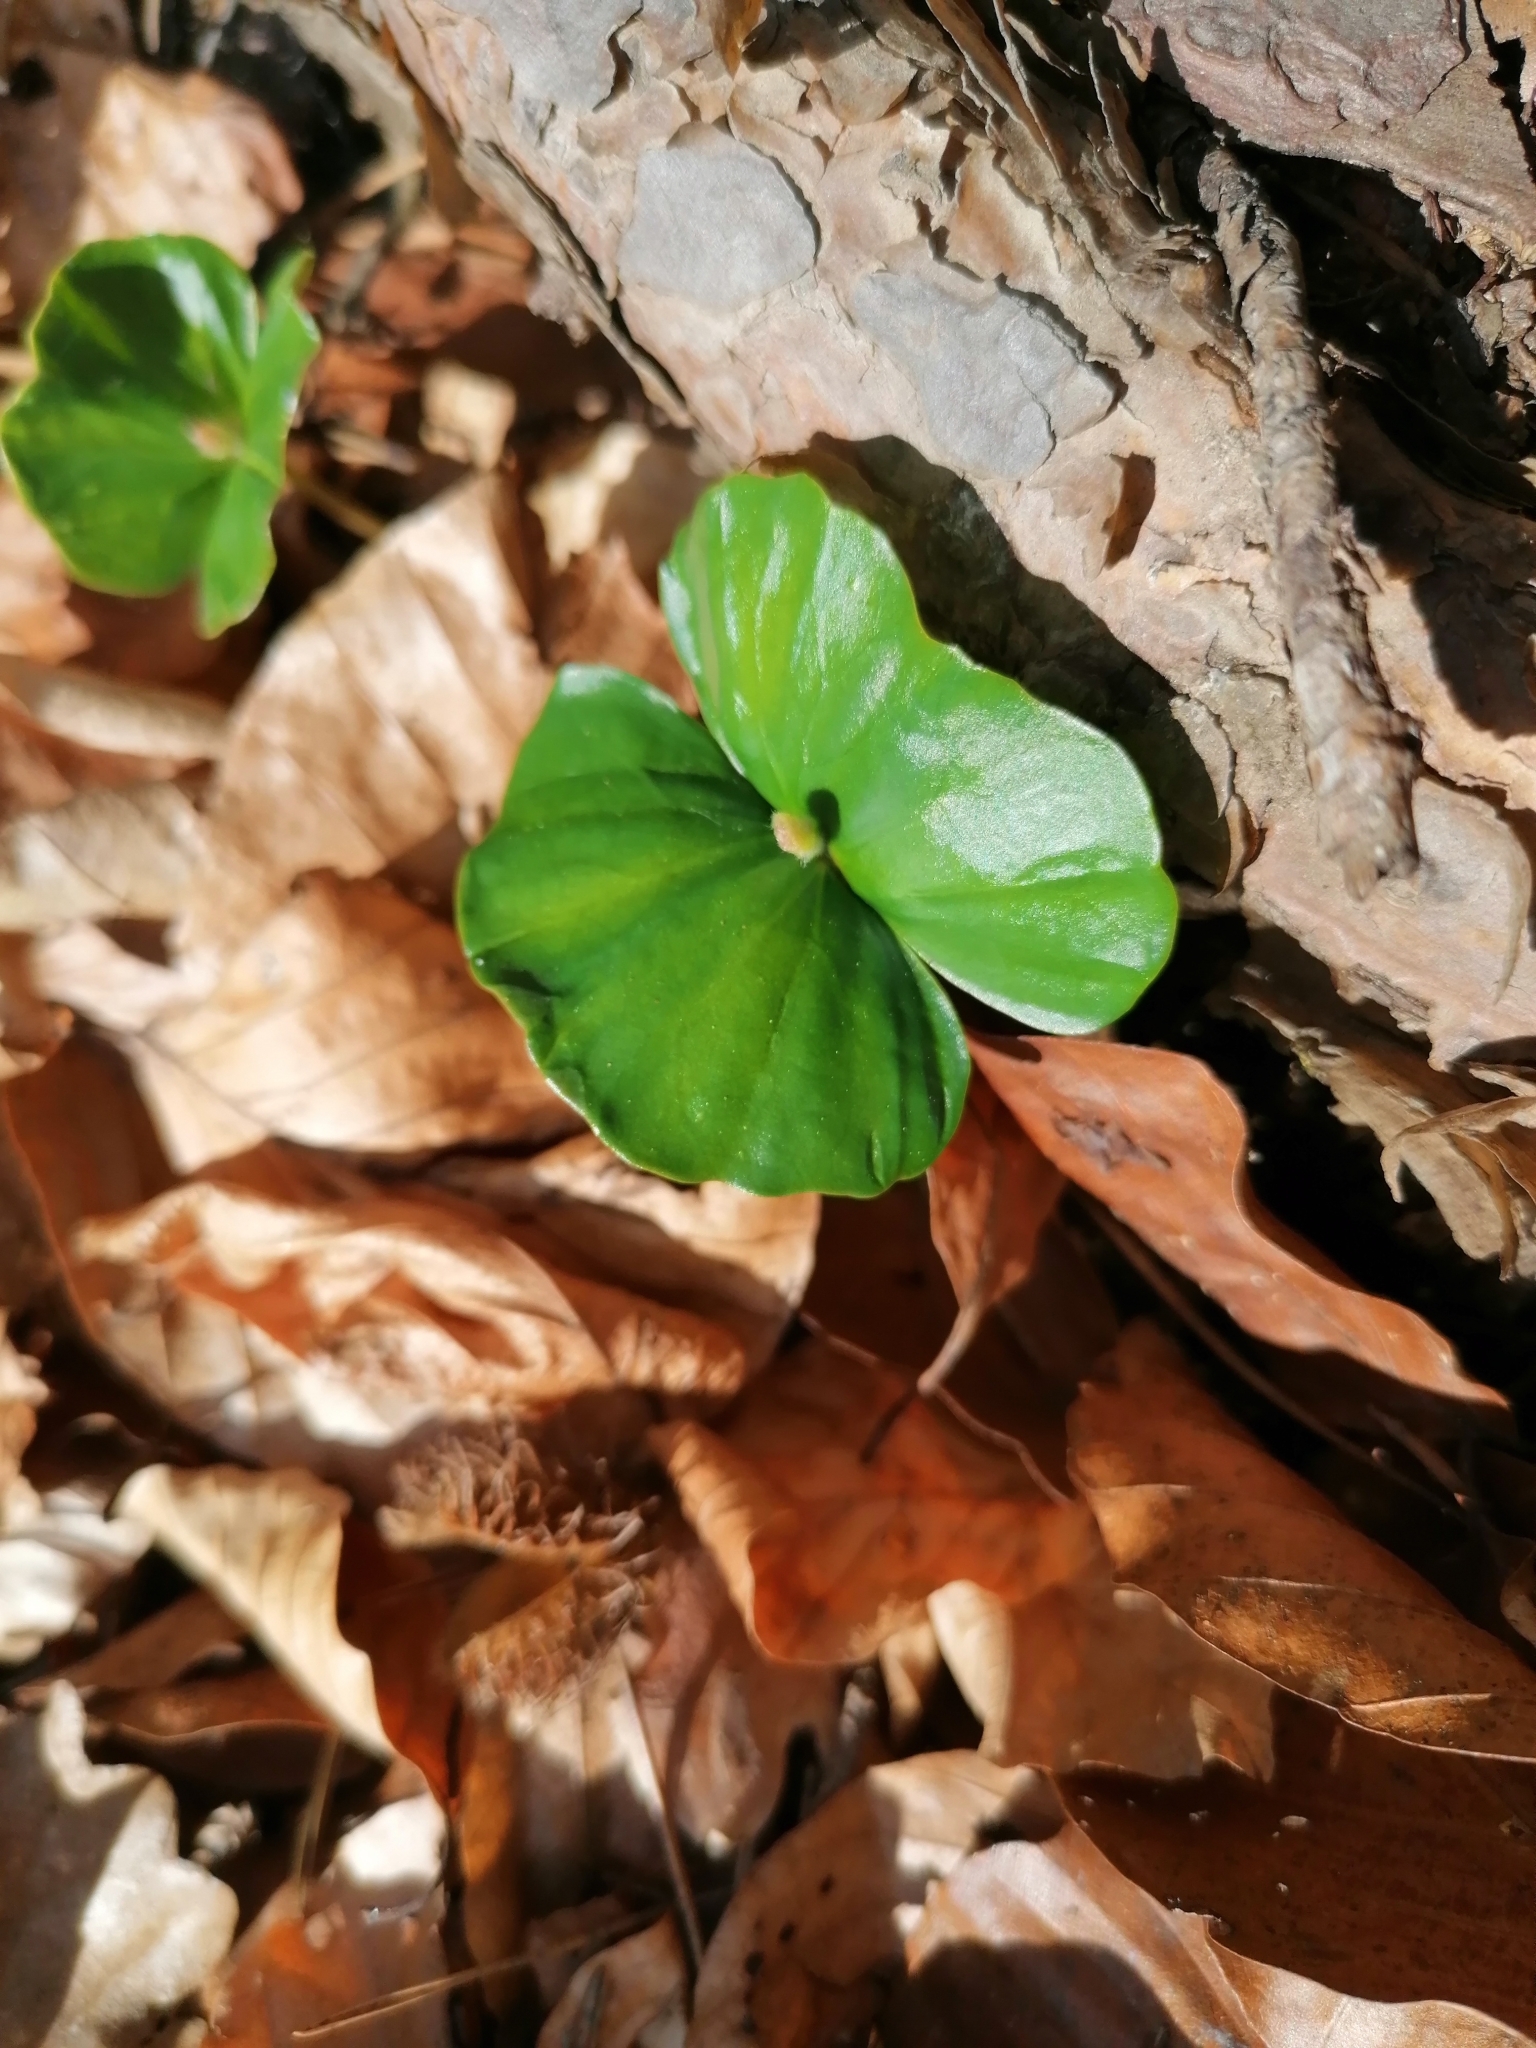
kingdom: Plantae
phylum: Tracheophyta
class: Magnoliopsida
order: Fagales
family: Fagaceae
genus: Fagus
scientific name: Fagus sylvatica
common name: Beech
